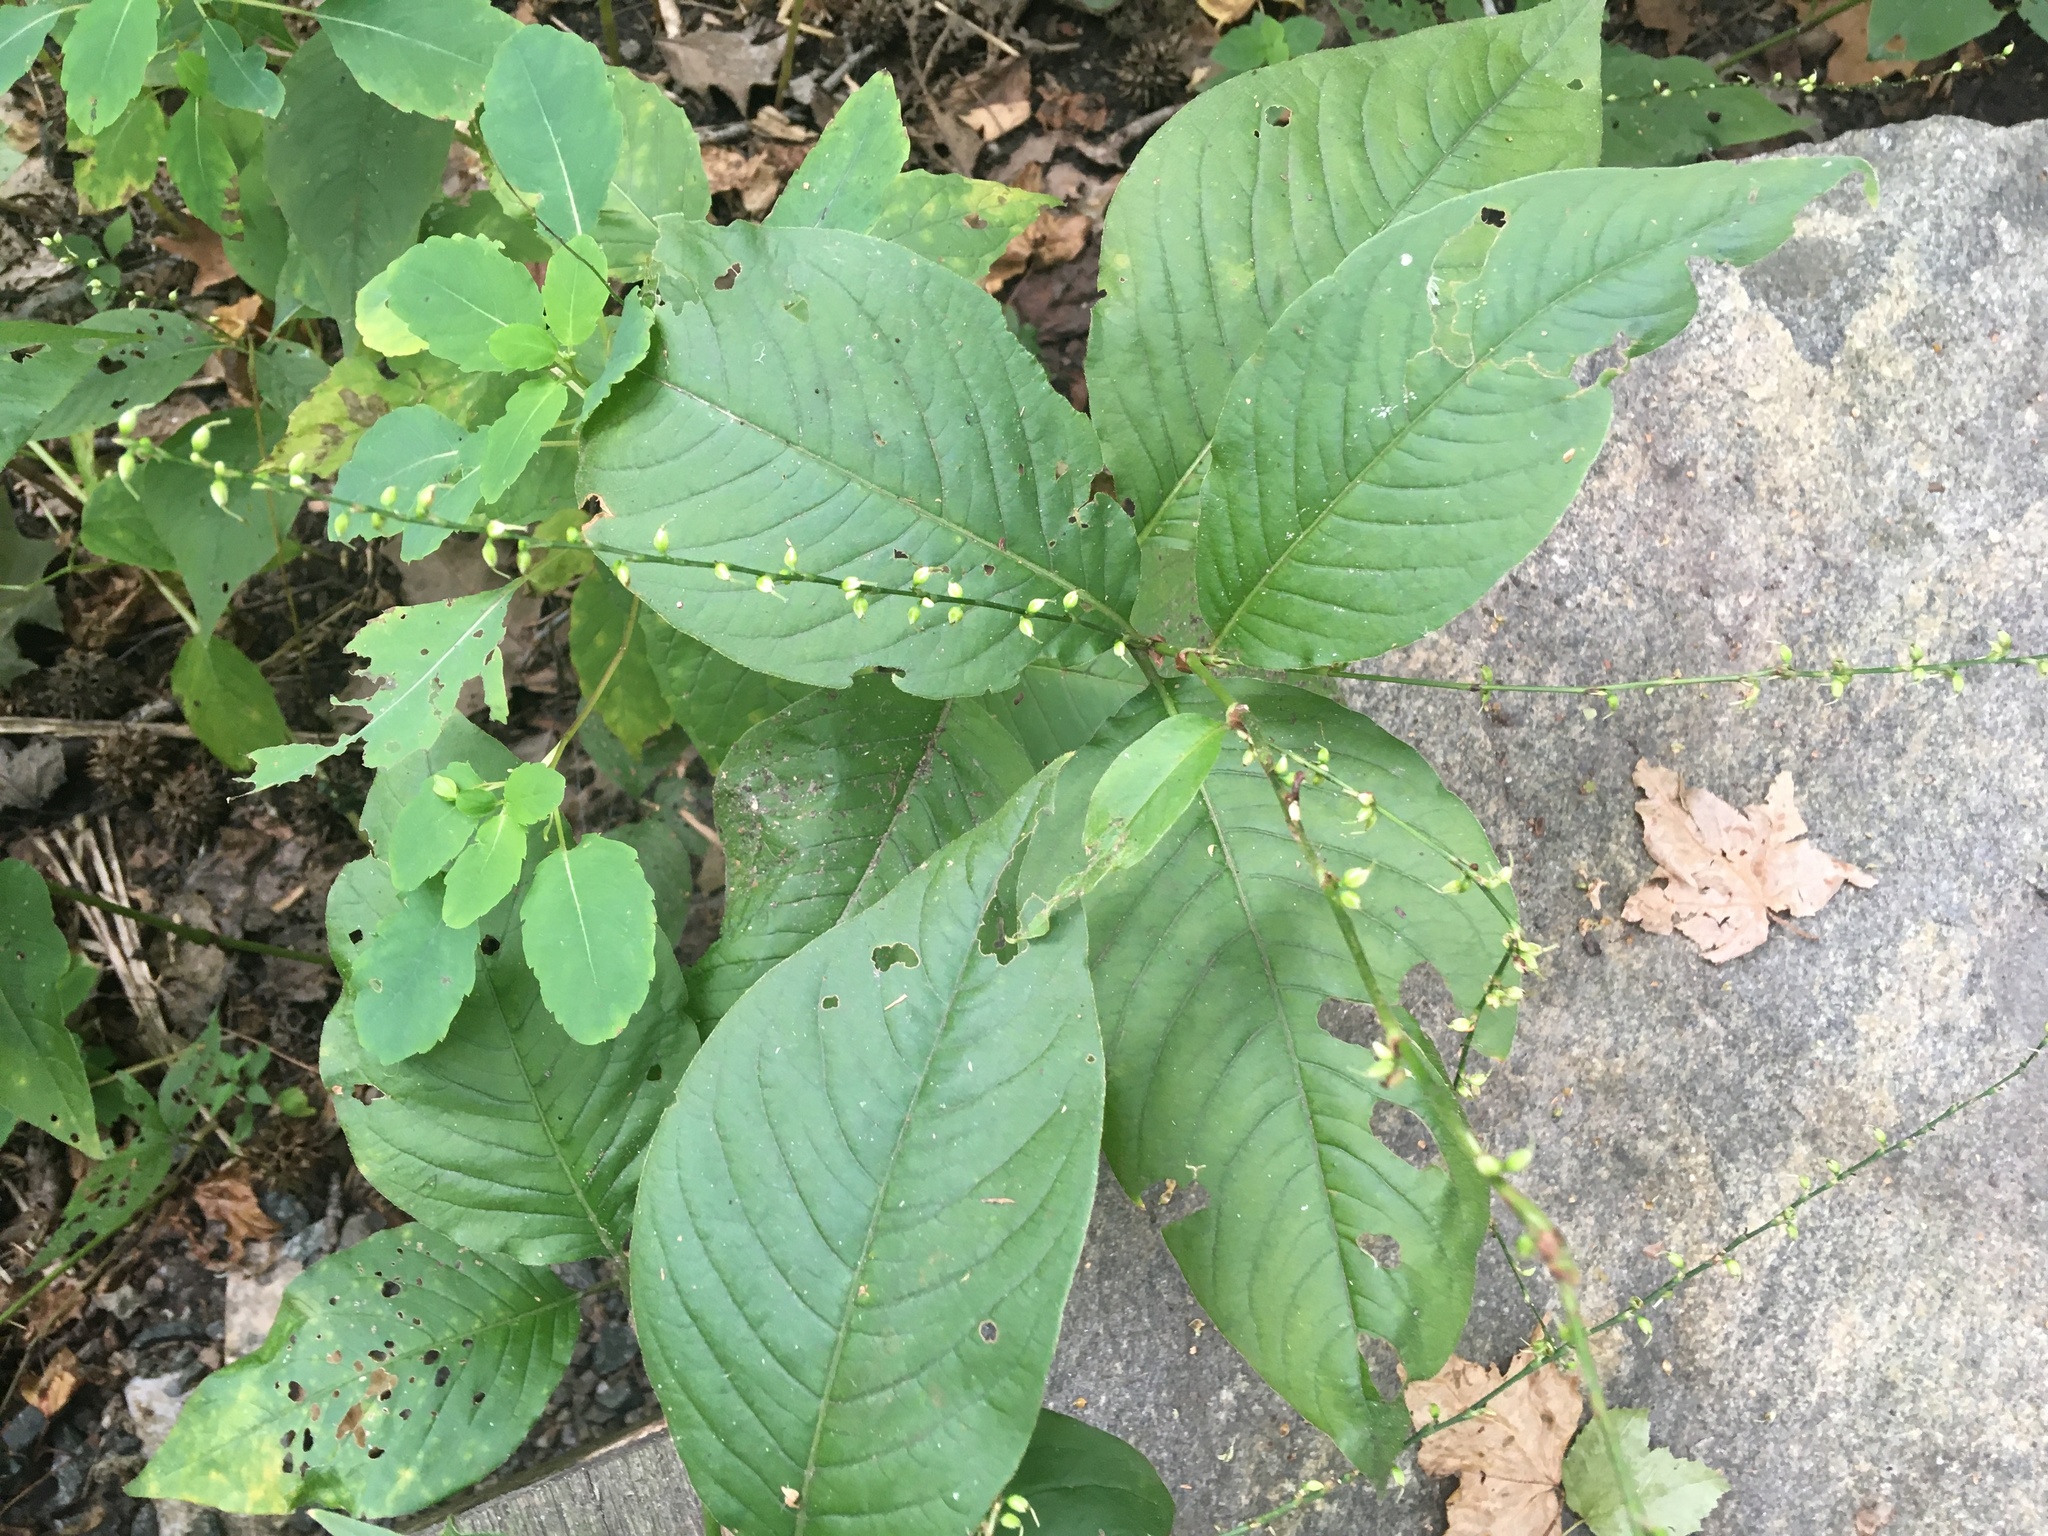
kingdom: Plantae
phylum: Tracheophyta
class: Magnoliopsida
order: Caryophyllales
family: Polygonaceae
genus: Persicaria
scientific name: Persicaria virginiana
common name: Jumpseed
